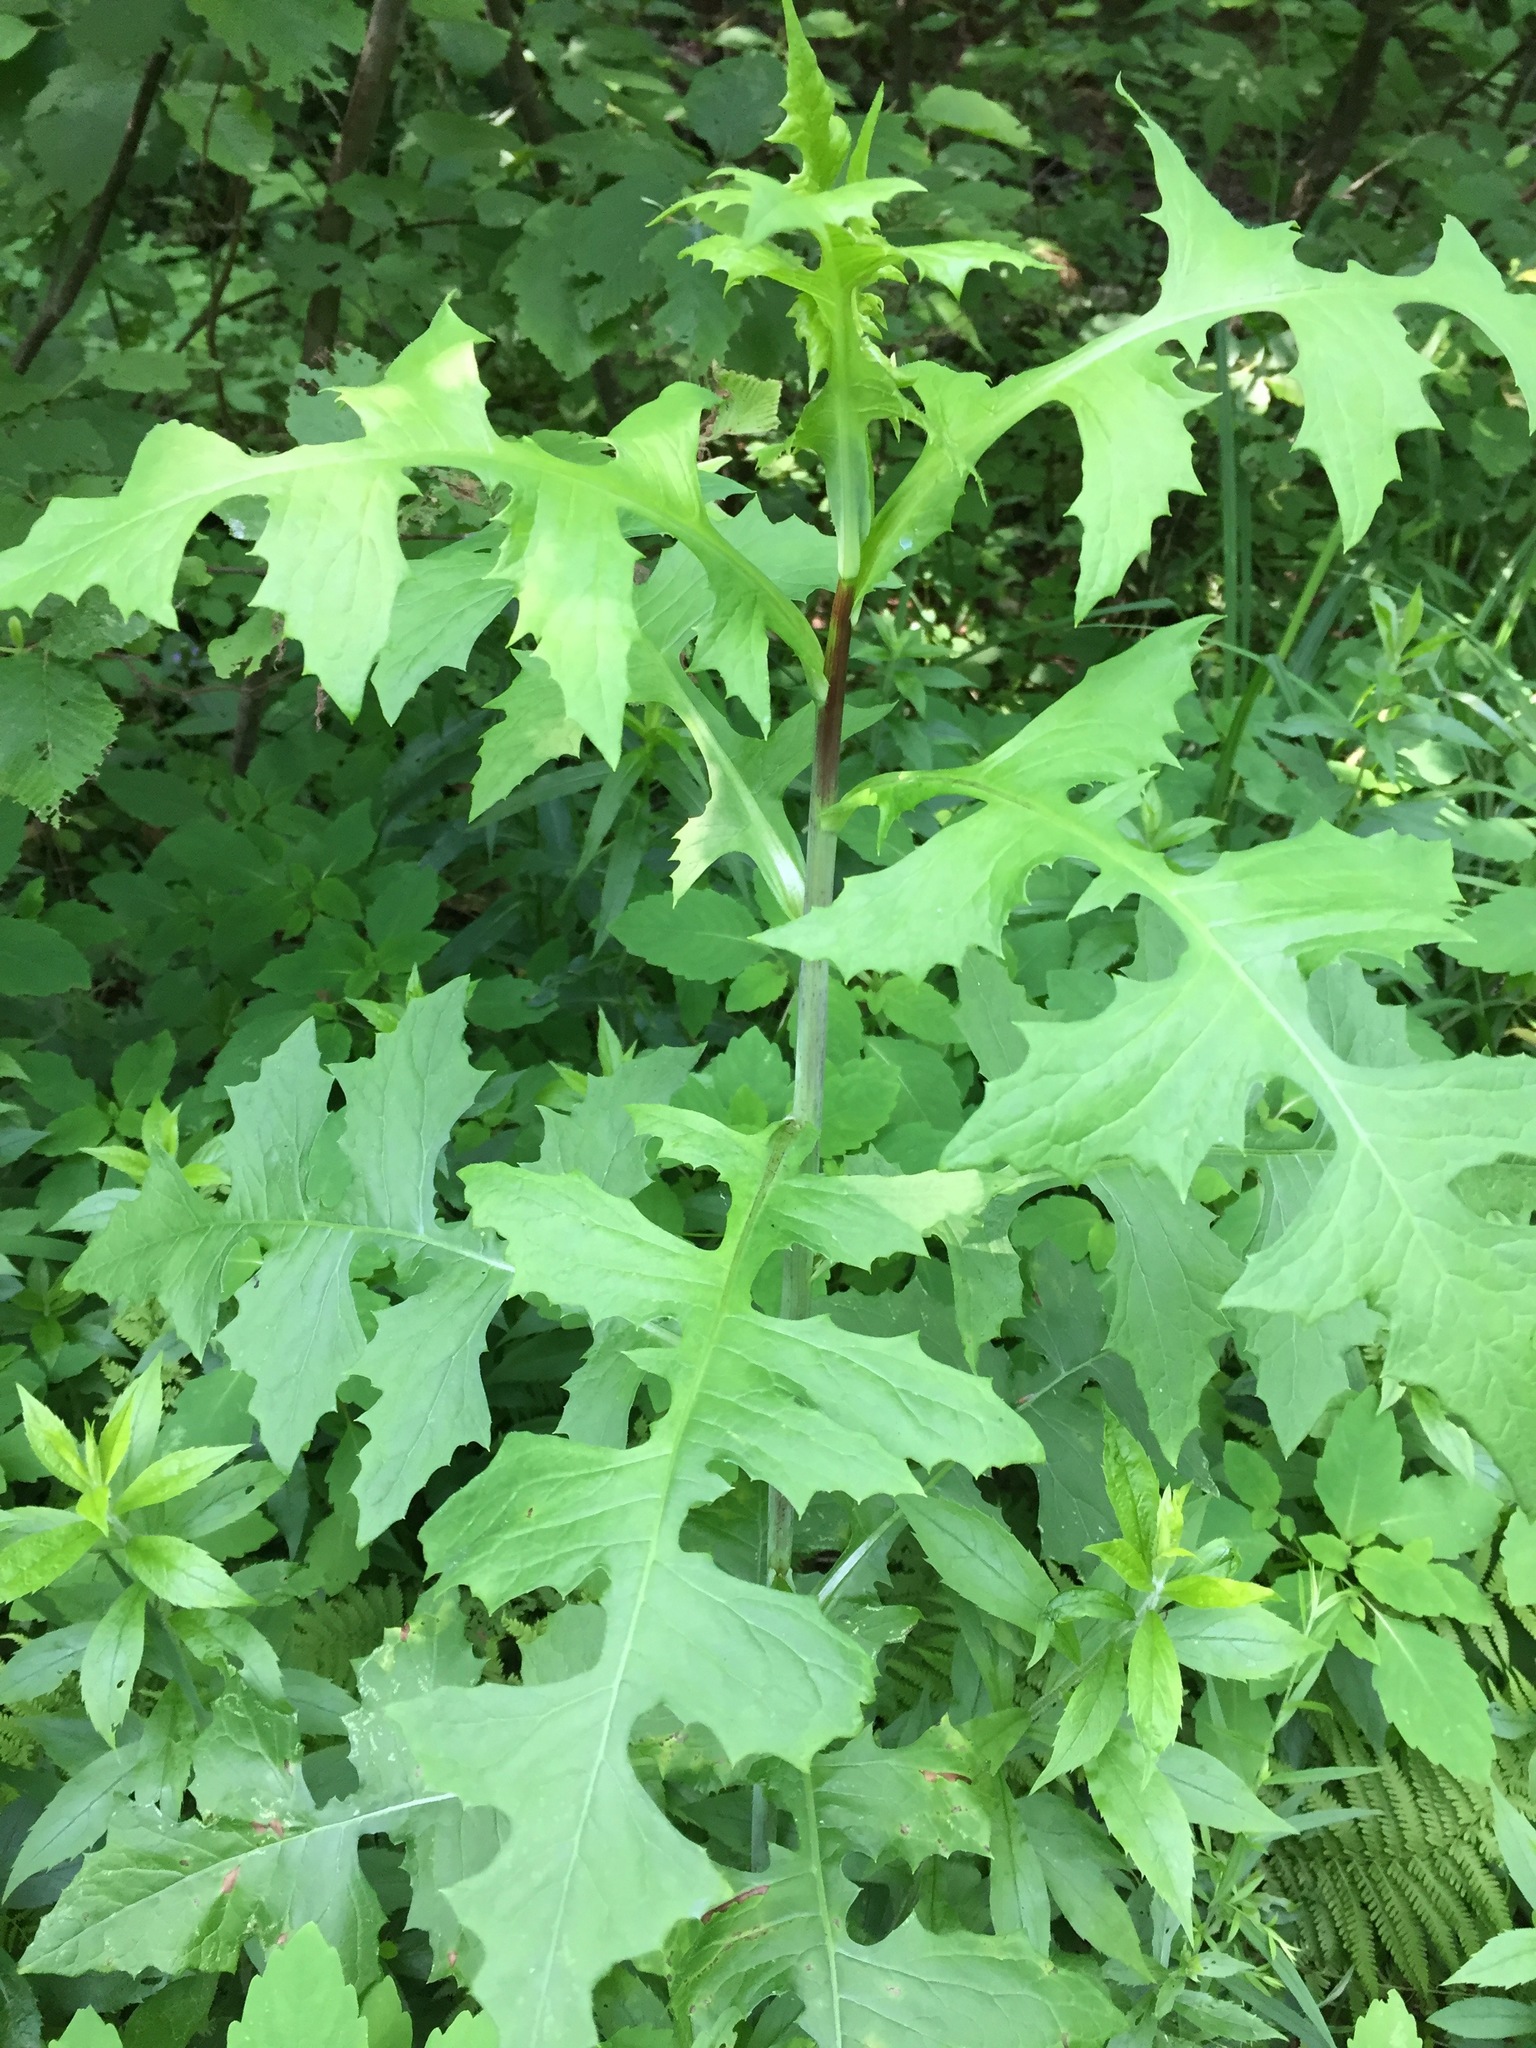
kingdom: Plantae
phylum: Tracheophyta
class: Magnoliopsida
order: Asterales
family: Asteraceae
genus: Lactuca
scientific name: Lactuca biennis
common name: Blue wood lettuce
